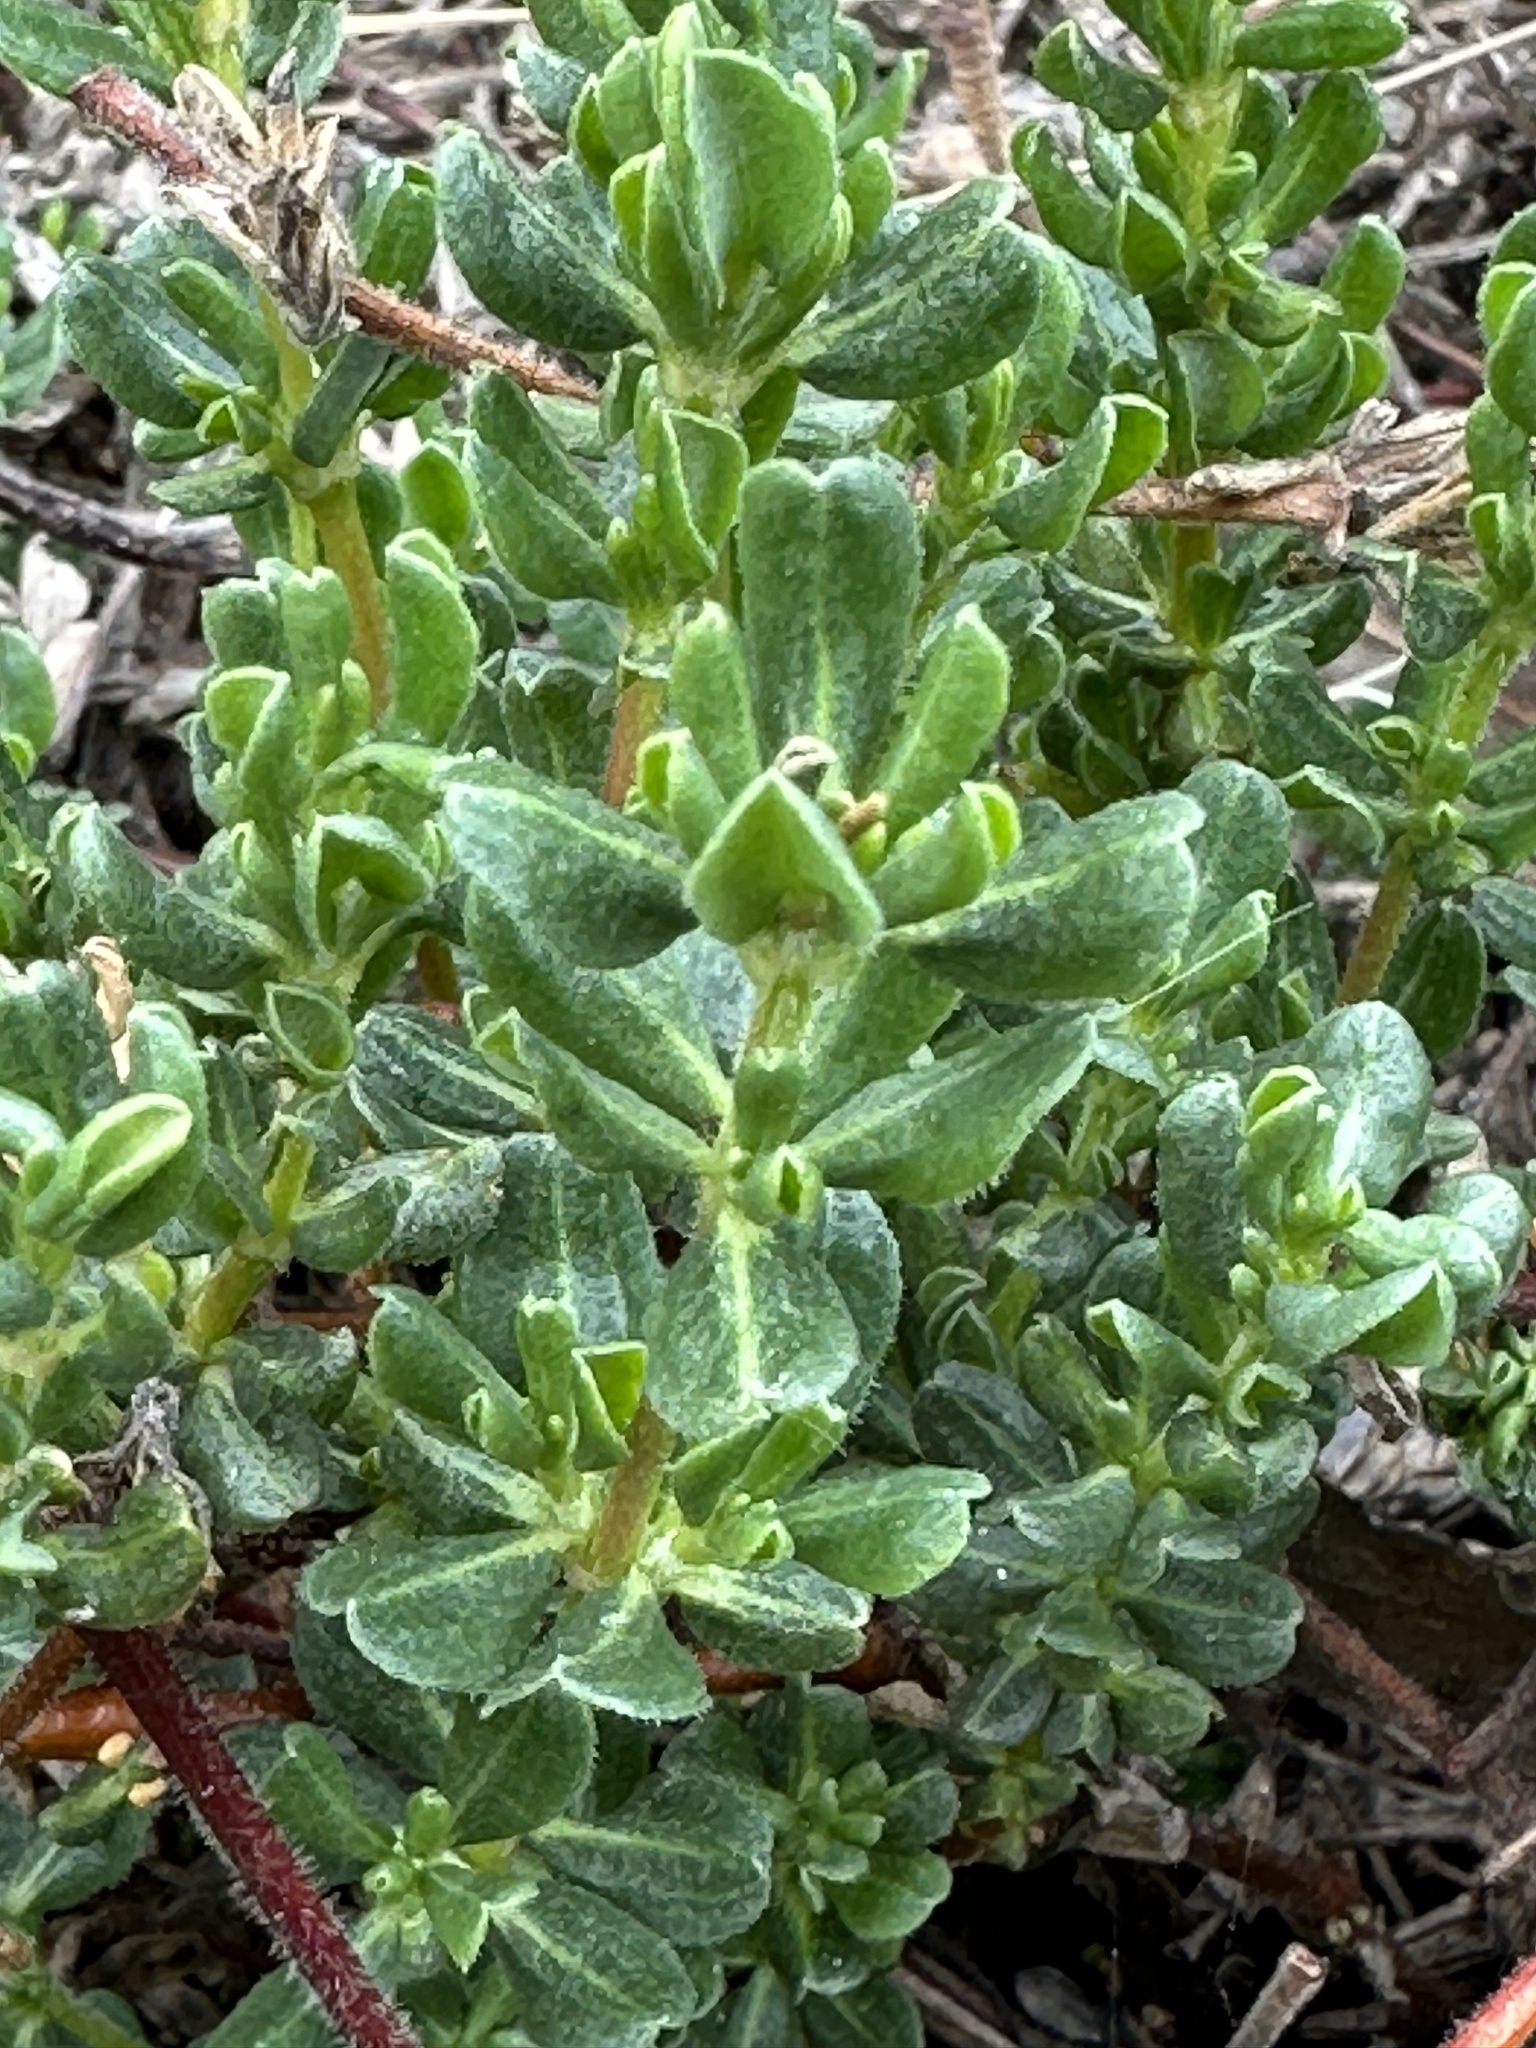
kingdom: Plantae
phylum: Tracheophyta
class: Magnoliopsida
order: Caryophyllales
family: Frankeniaceae
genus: Frankenia
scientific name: Frankenia salina
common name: Alkali seaheath
